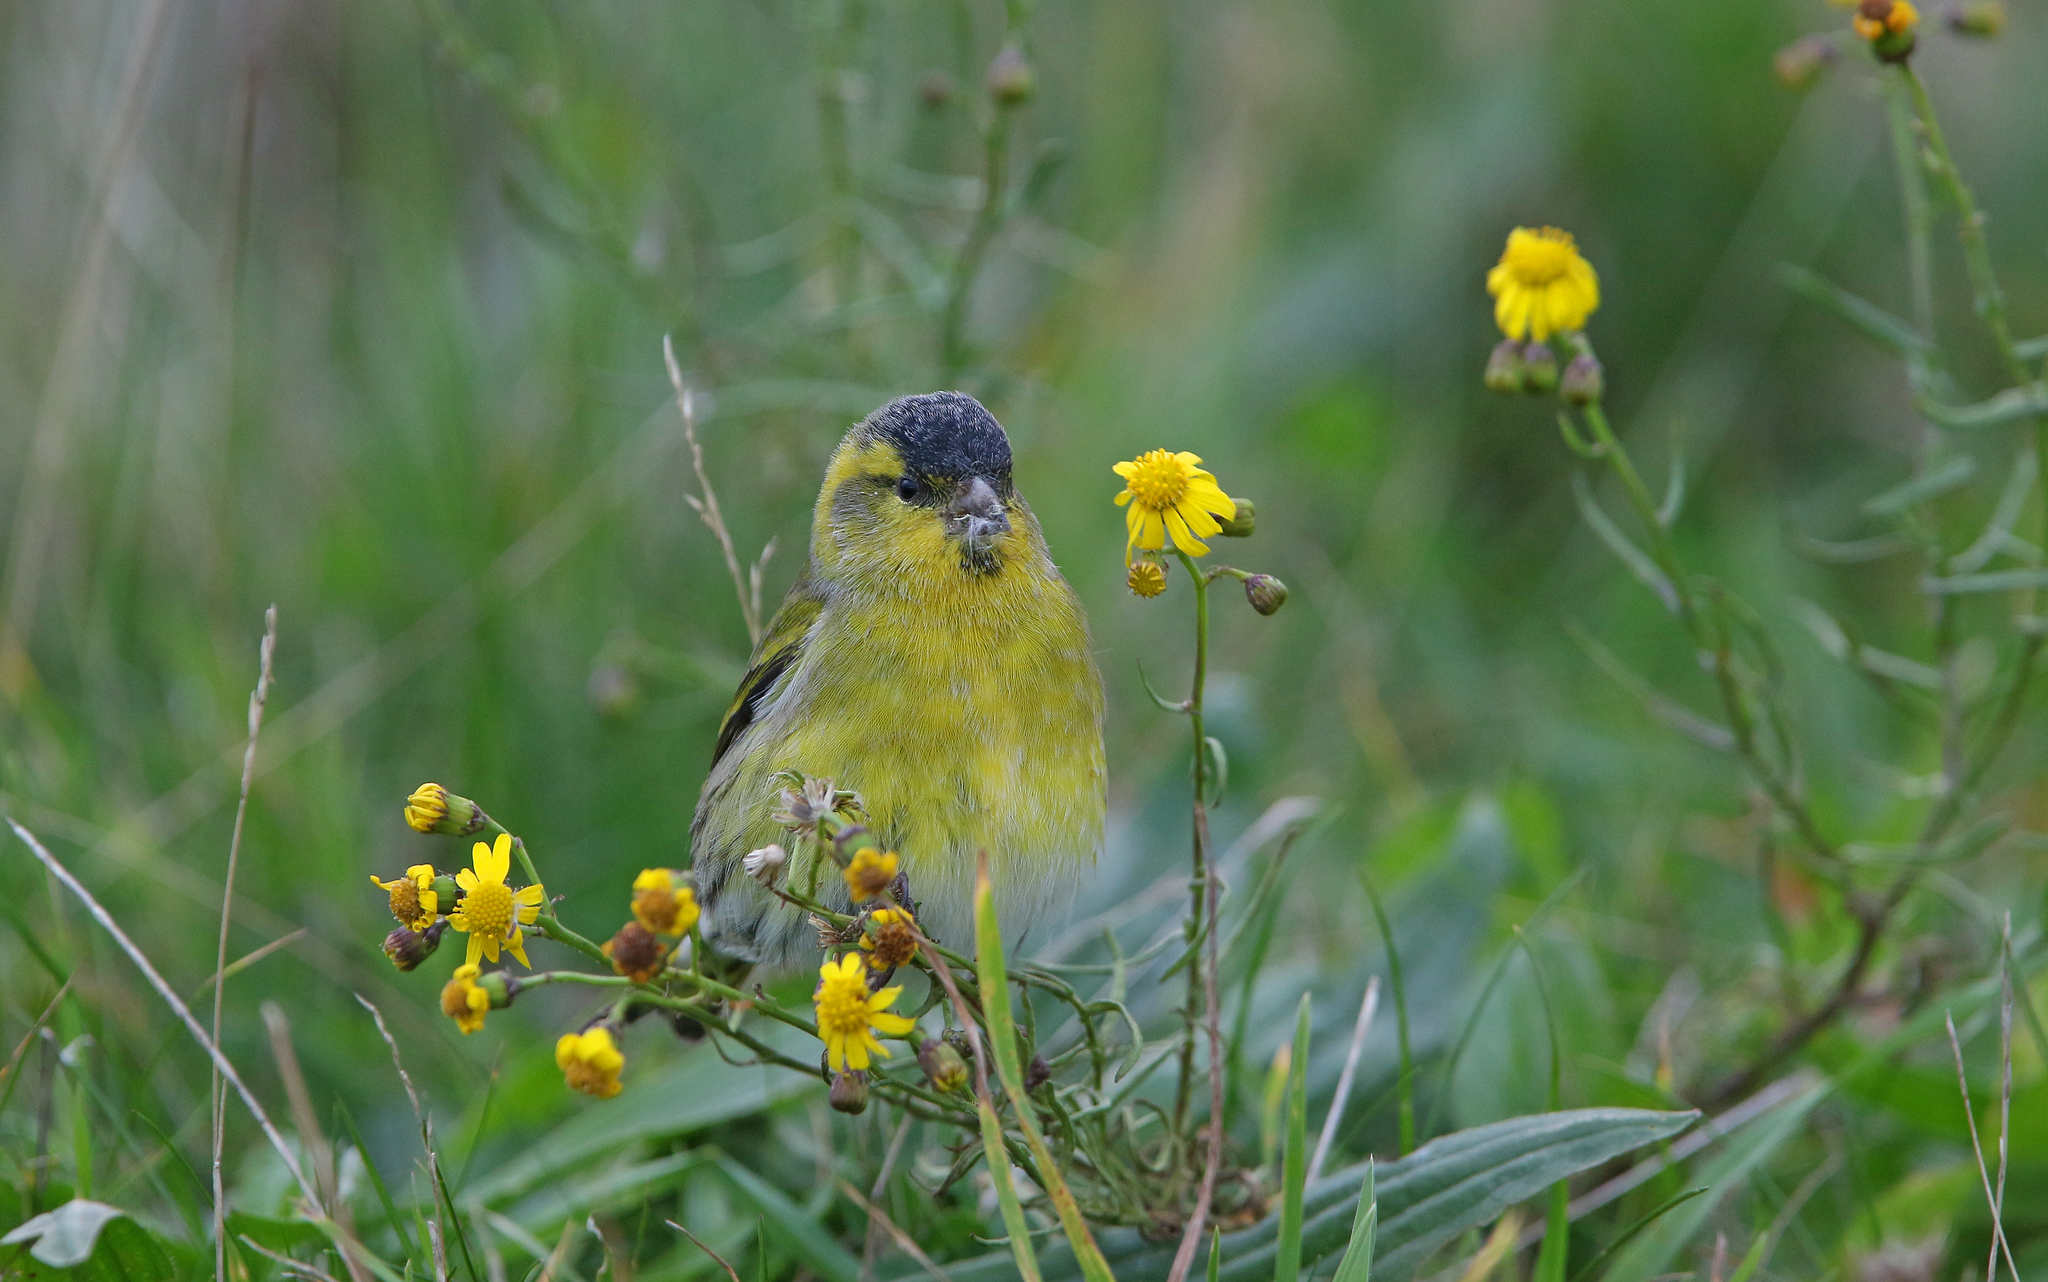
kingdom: Animalia
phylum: Chordata
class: Aves
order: Passeriformes
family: Fringillidae
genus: Spinus
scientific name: Spinus spinus
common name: Eurasian siskin
